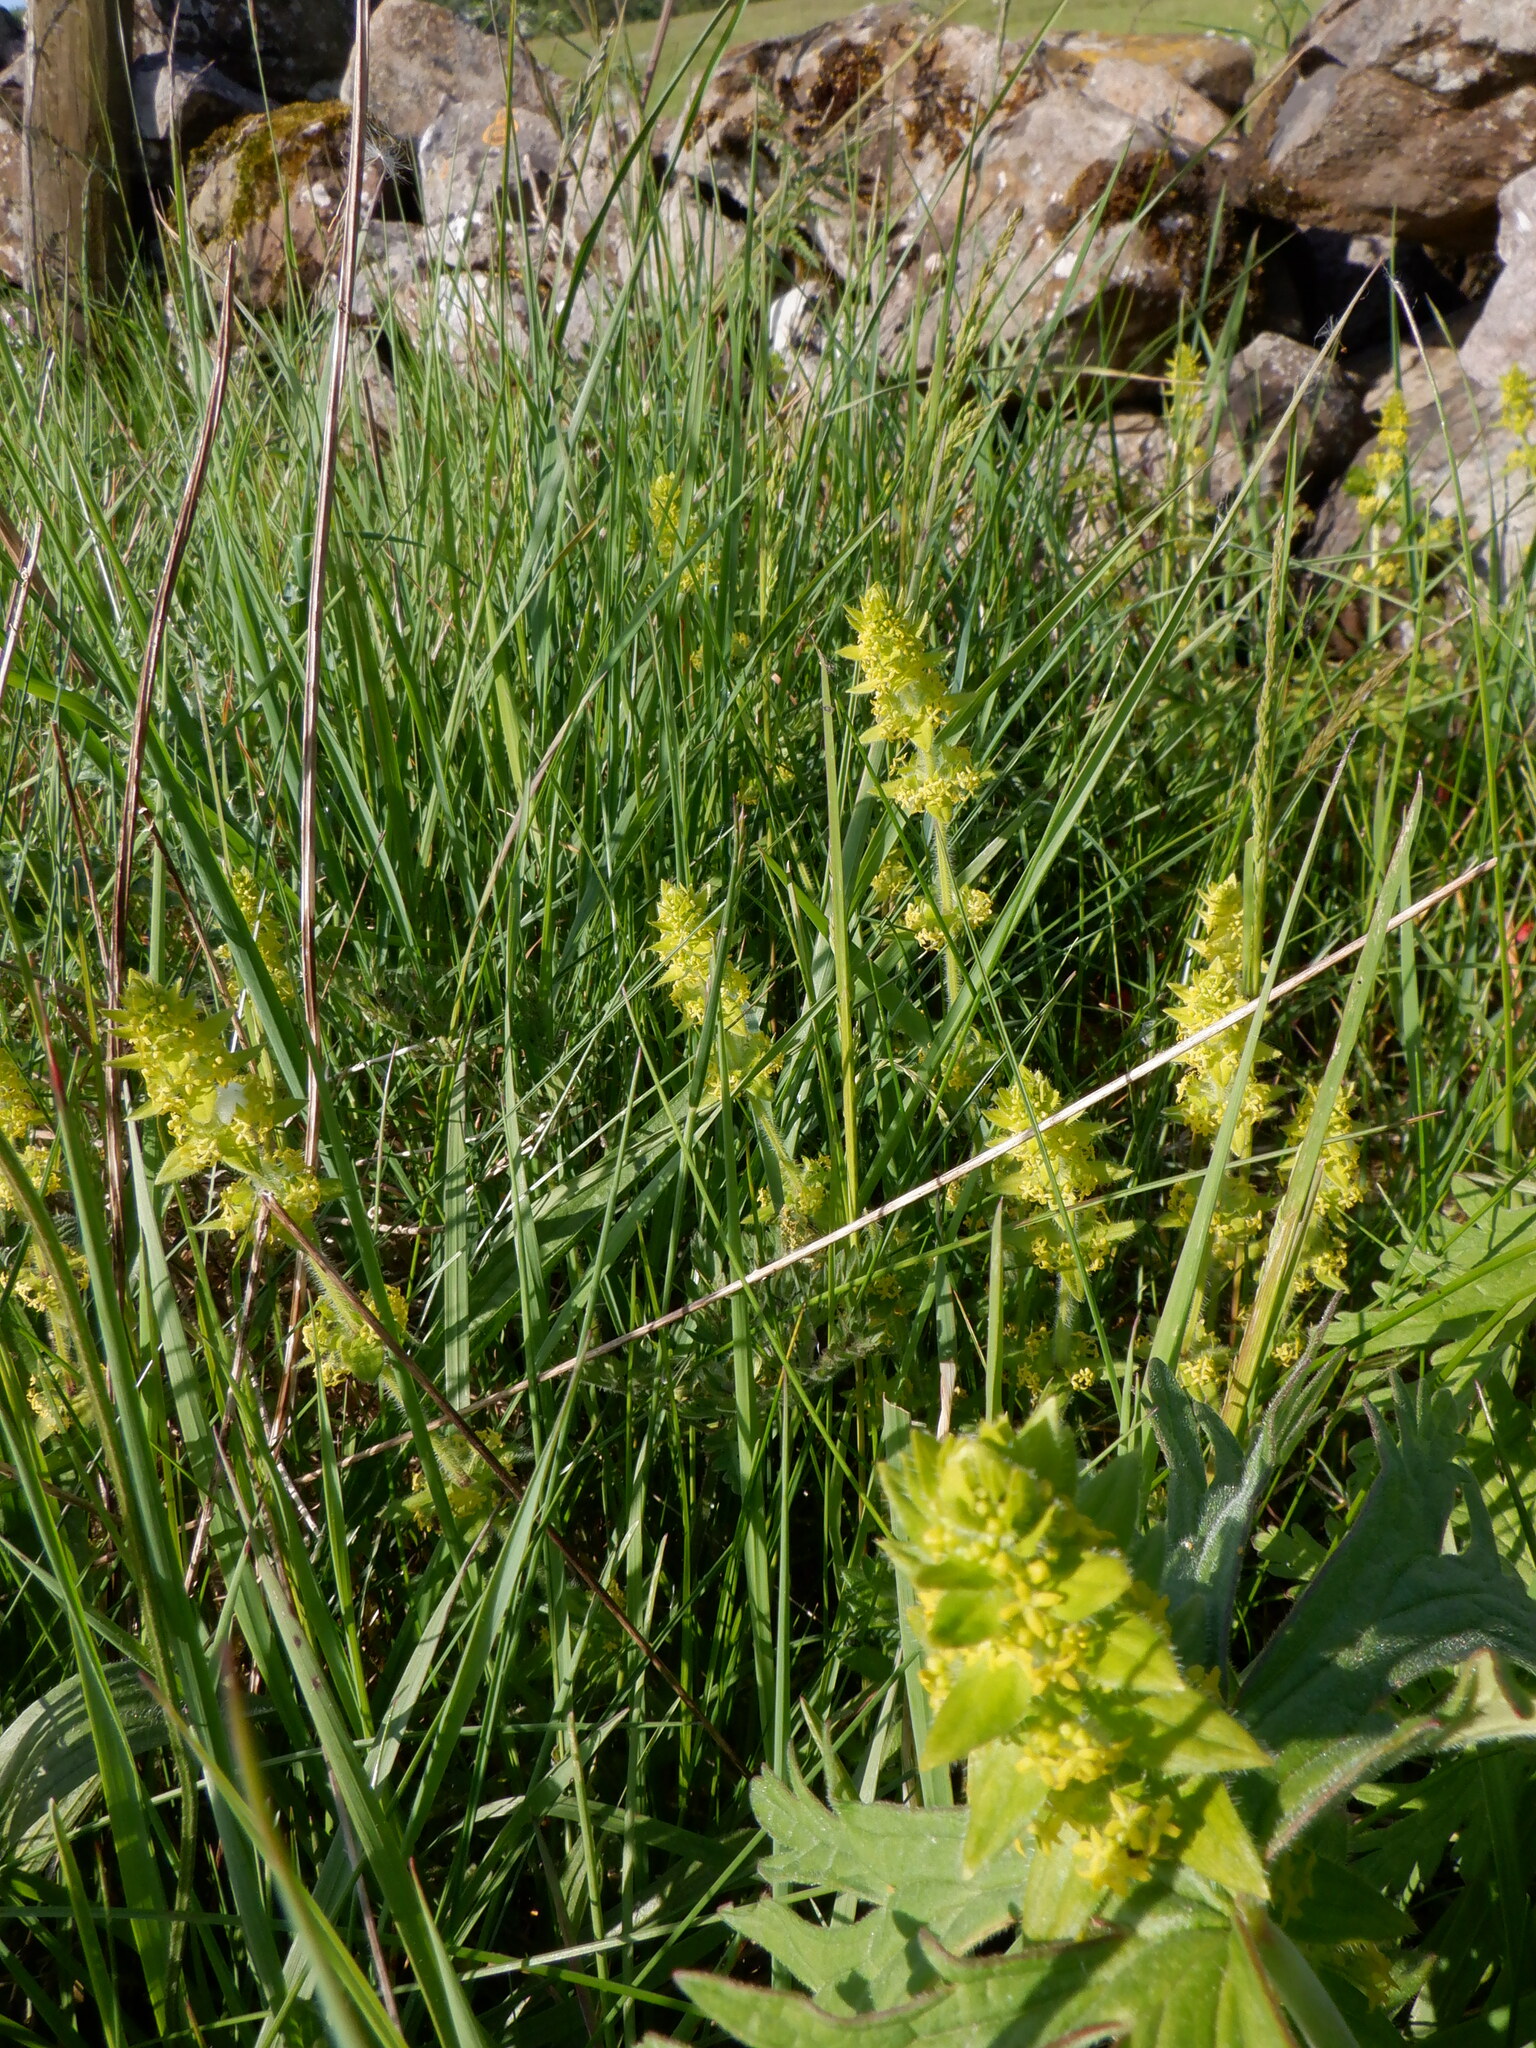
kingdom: Plantae
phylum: Tracheophyta
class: Magnoliopsida
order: Gentianales
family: Rubiaceae
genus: Cruciata
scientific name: Cruciata laevipes
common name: Crosswort
